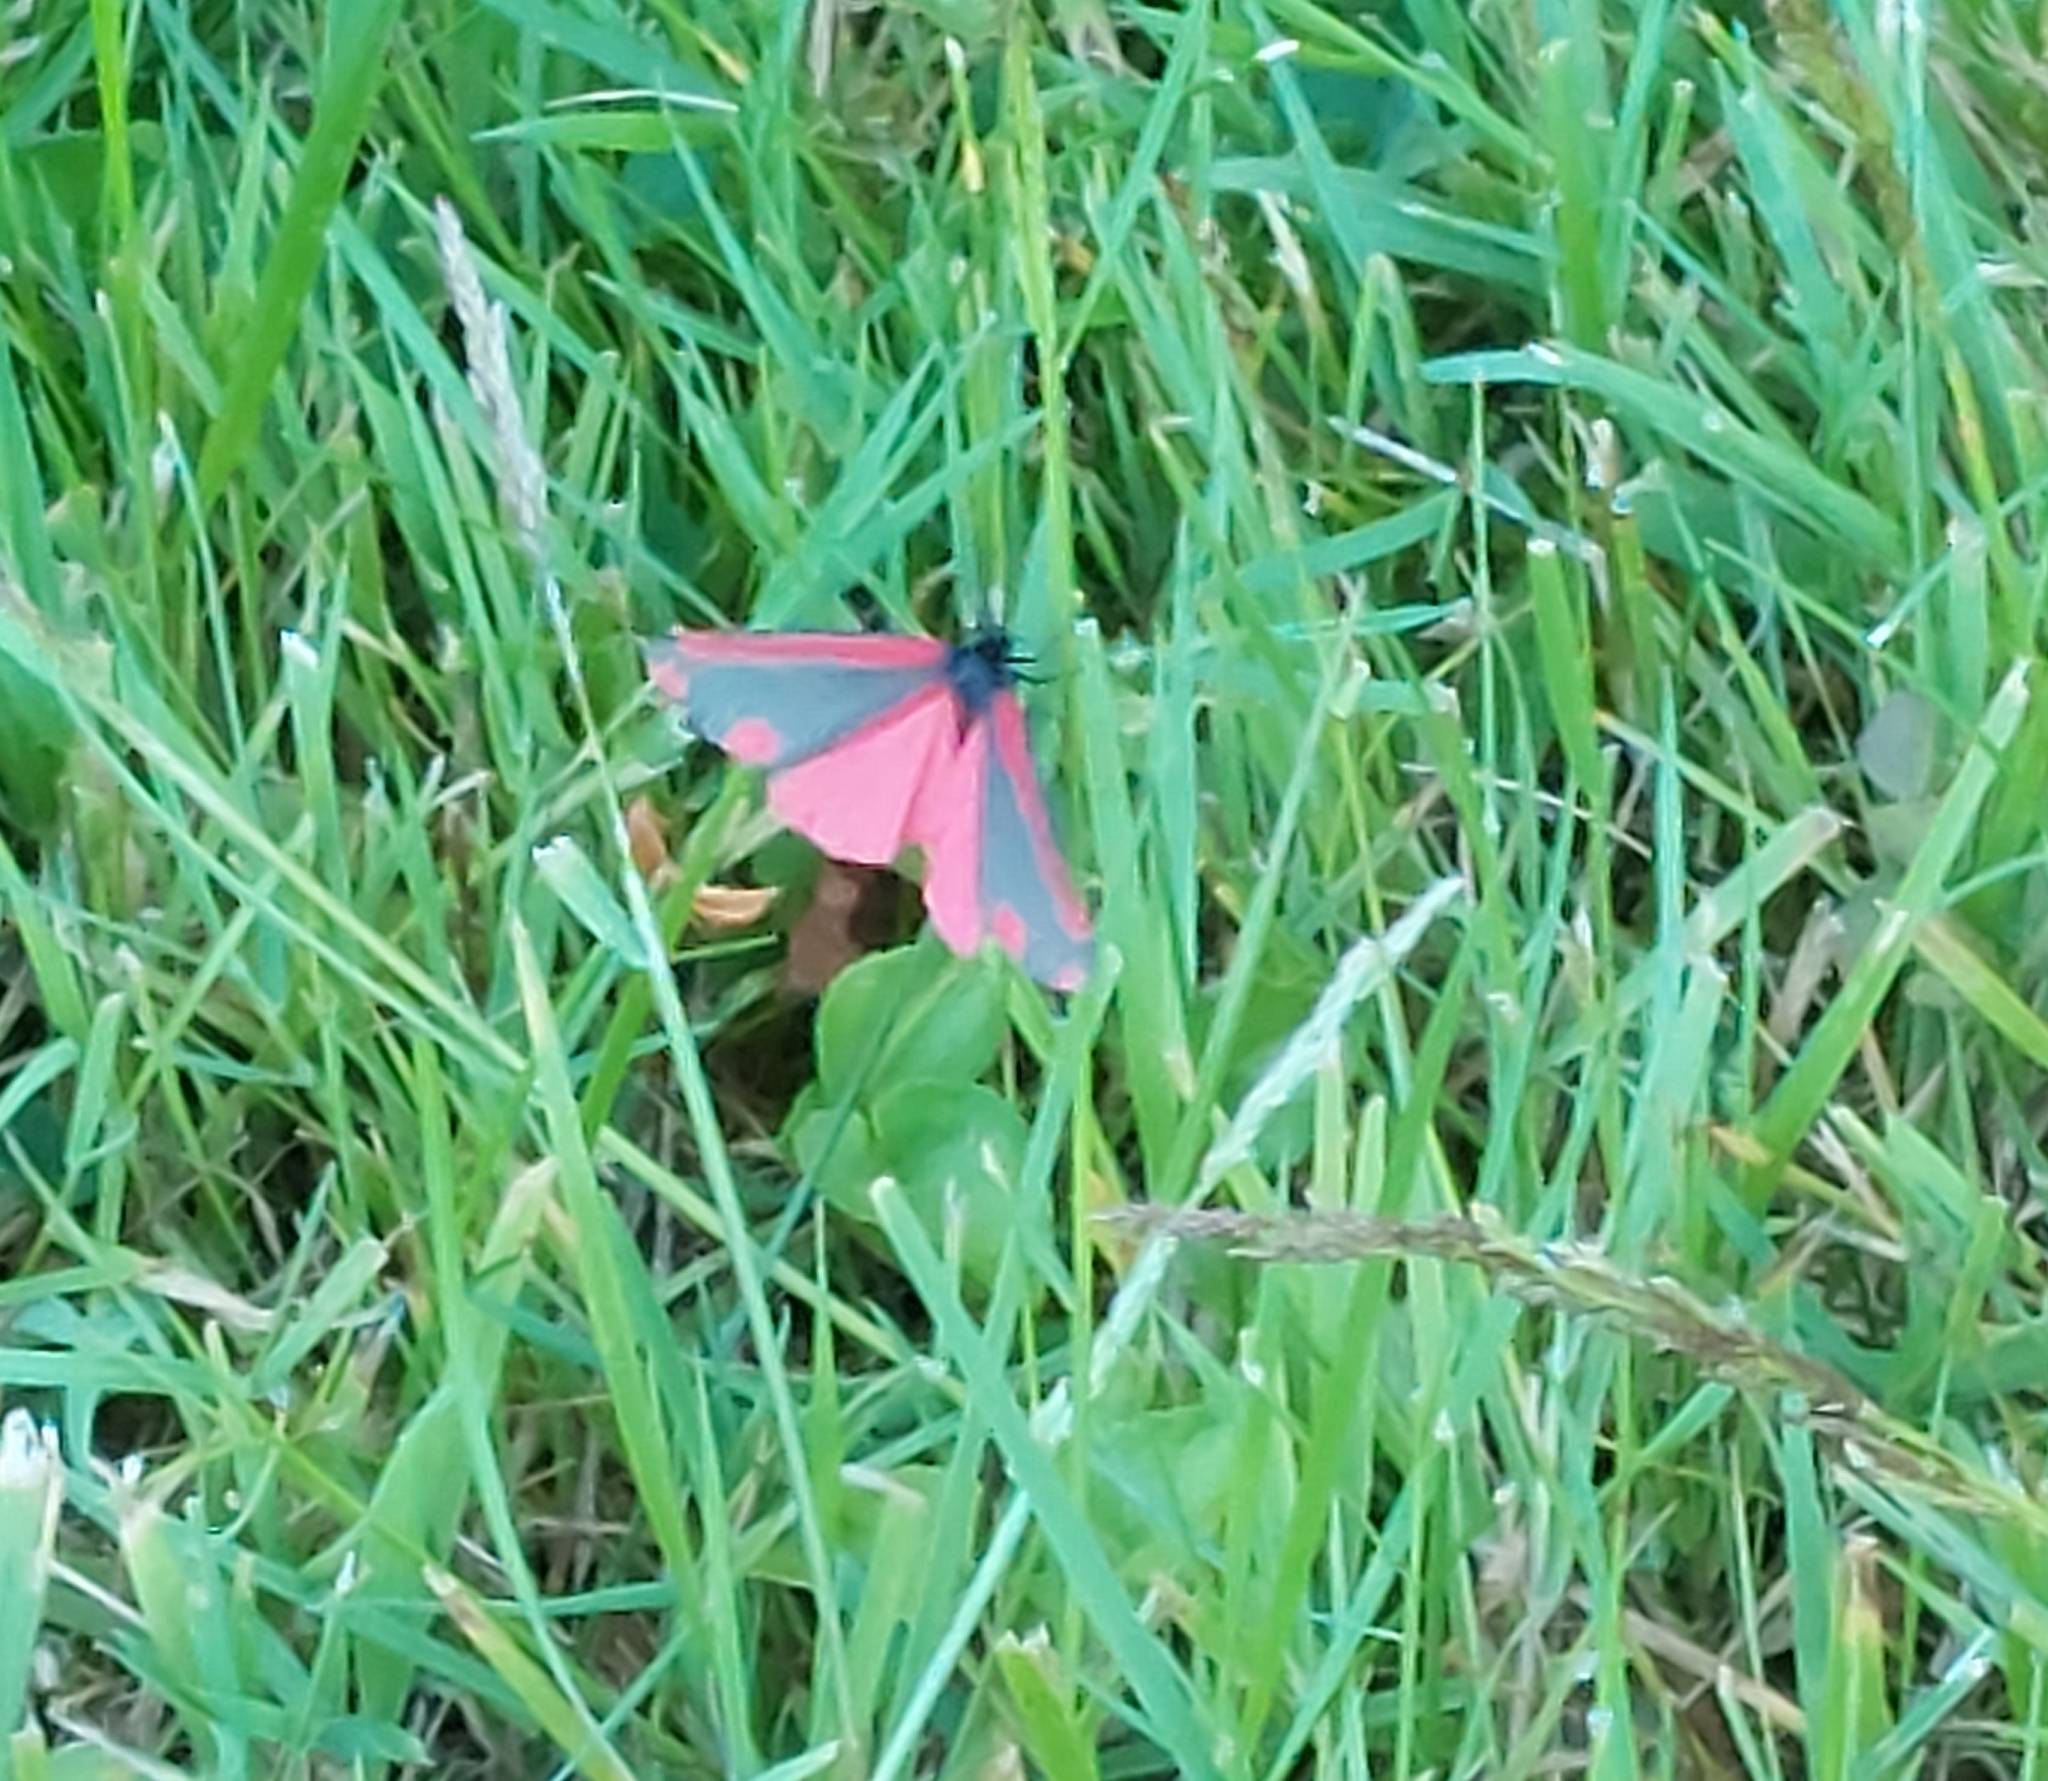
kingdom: Animalia
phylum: Arthropoda
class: Insecta
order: Lepidoptera
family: Erebidae
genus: Tyria
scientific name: Tyria jacobaeae
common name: Cinnabar
